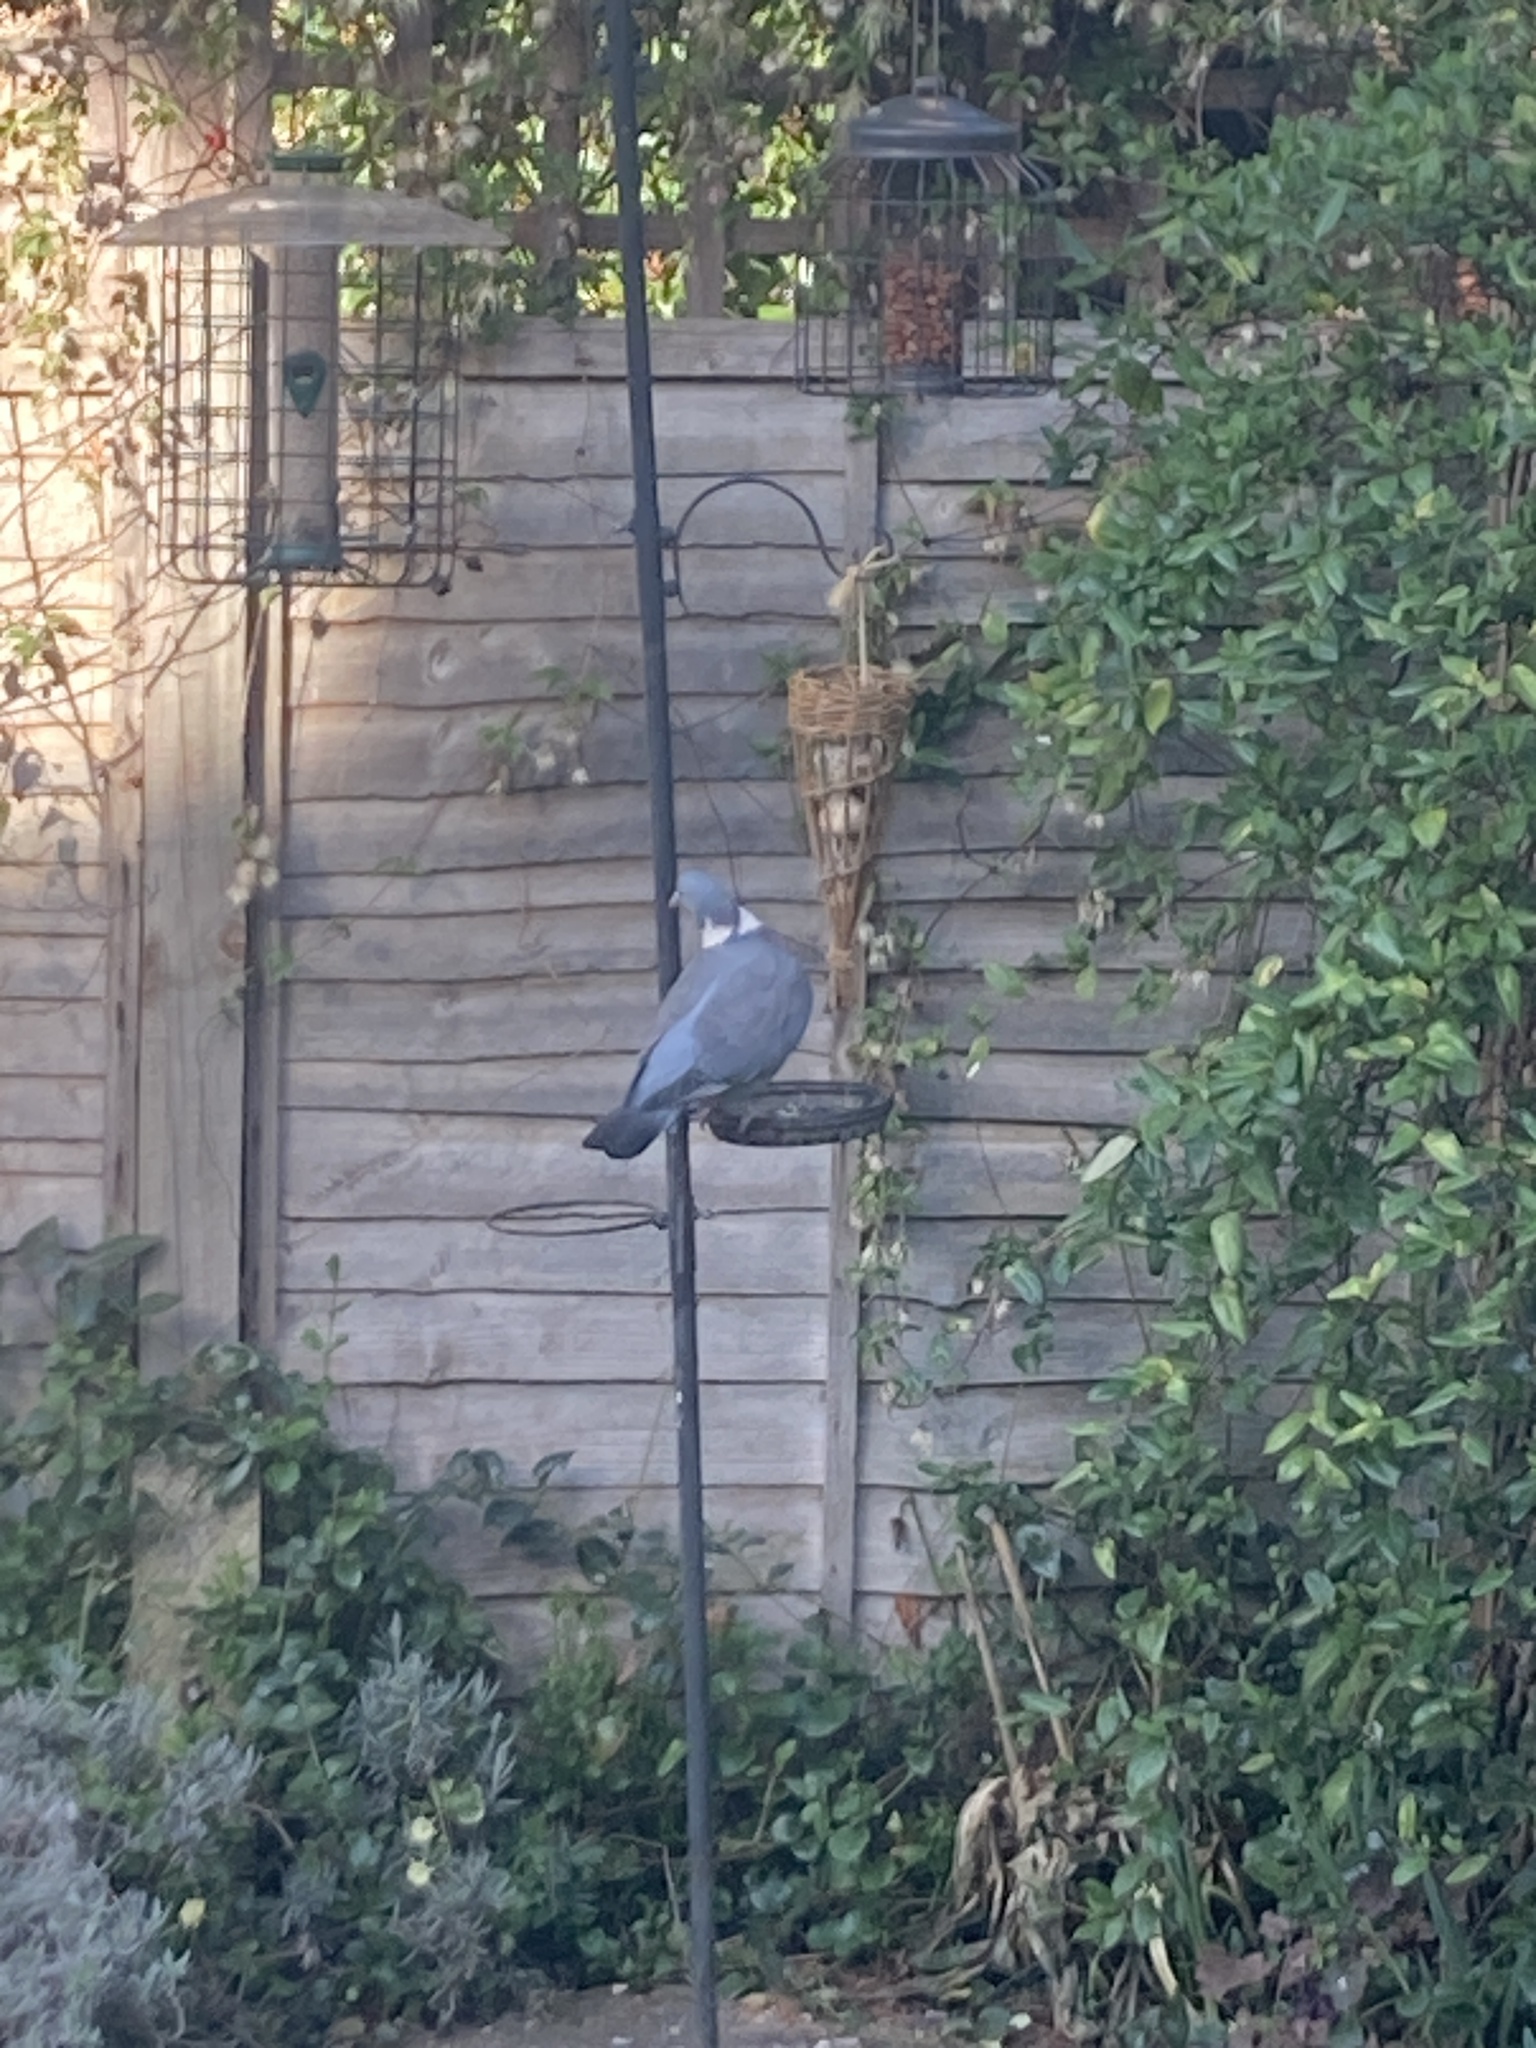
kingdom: Animalia
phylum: Chordata
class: Aves
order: Columbiformes
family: Columbidae
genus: Columba
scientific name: Columba palumbus
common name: Common wood pigeon
